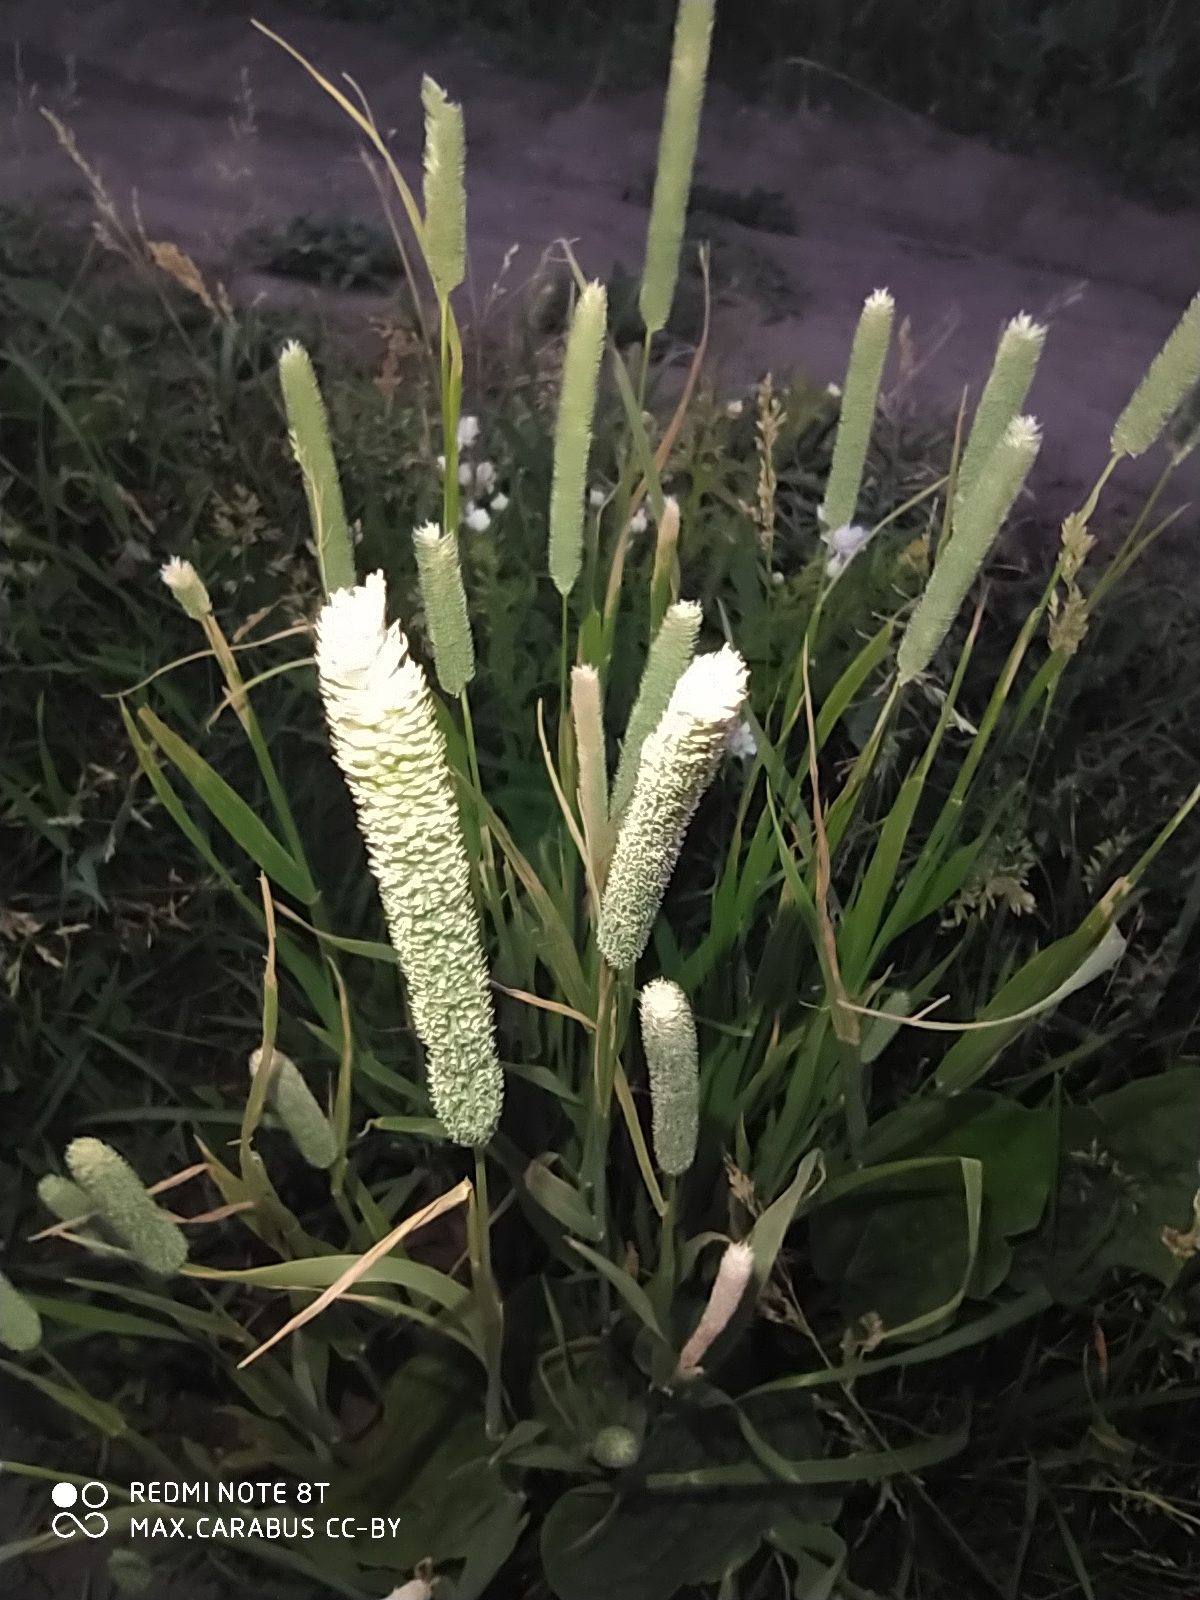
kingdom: Plantae
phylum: Tracheophyta
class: Liliopsida
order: Poales
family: Poaceae
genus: Phleum
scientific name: Phleum pratense
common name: Timothy grass
